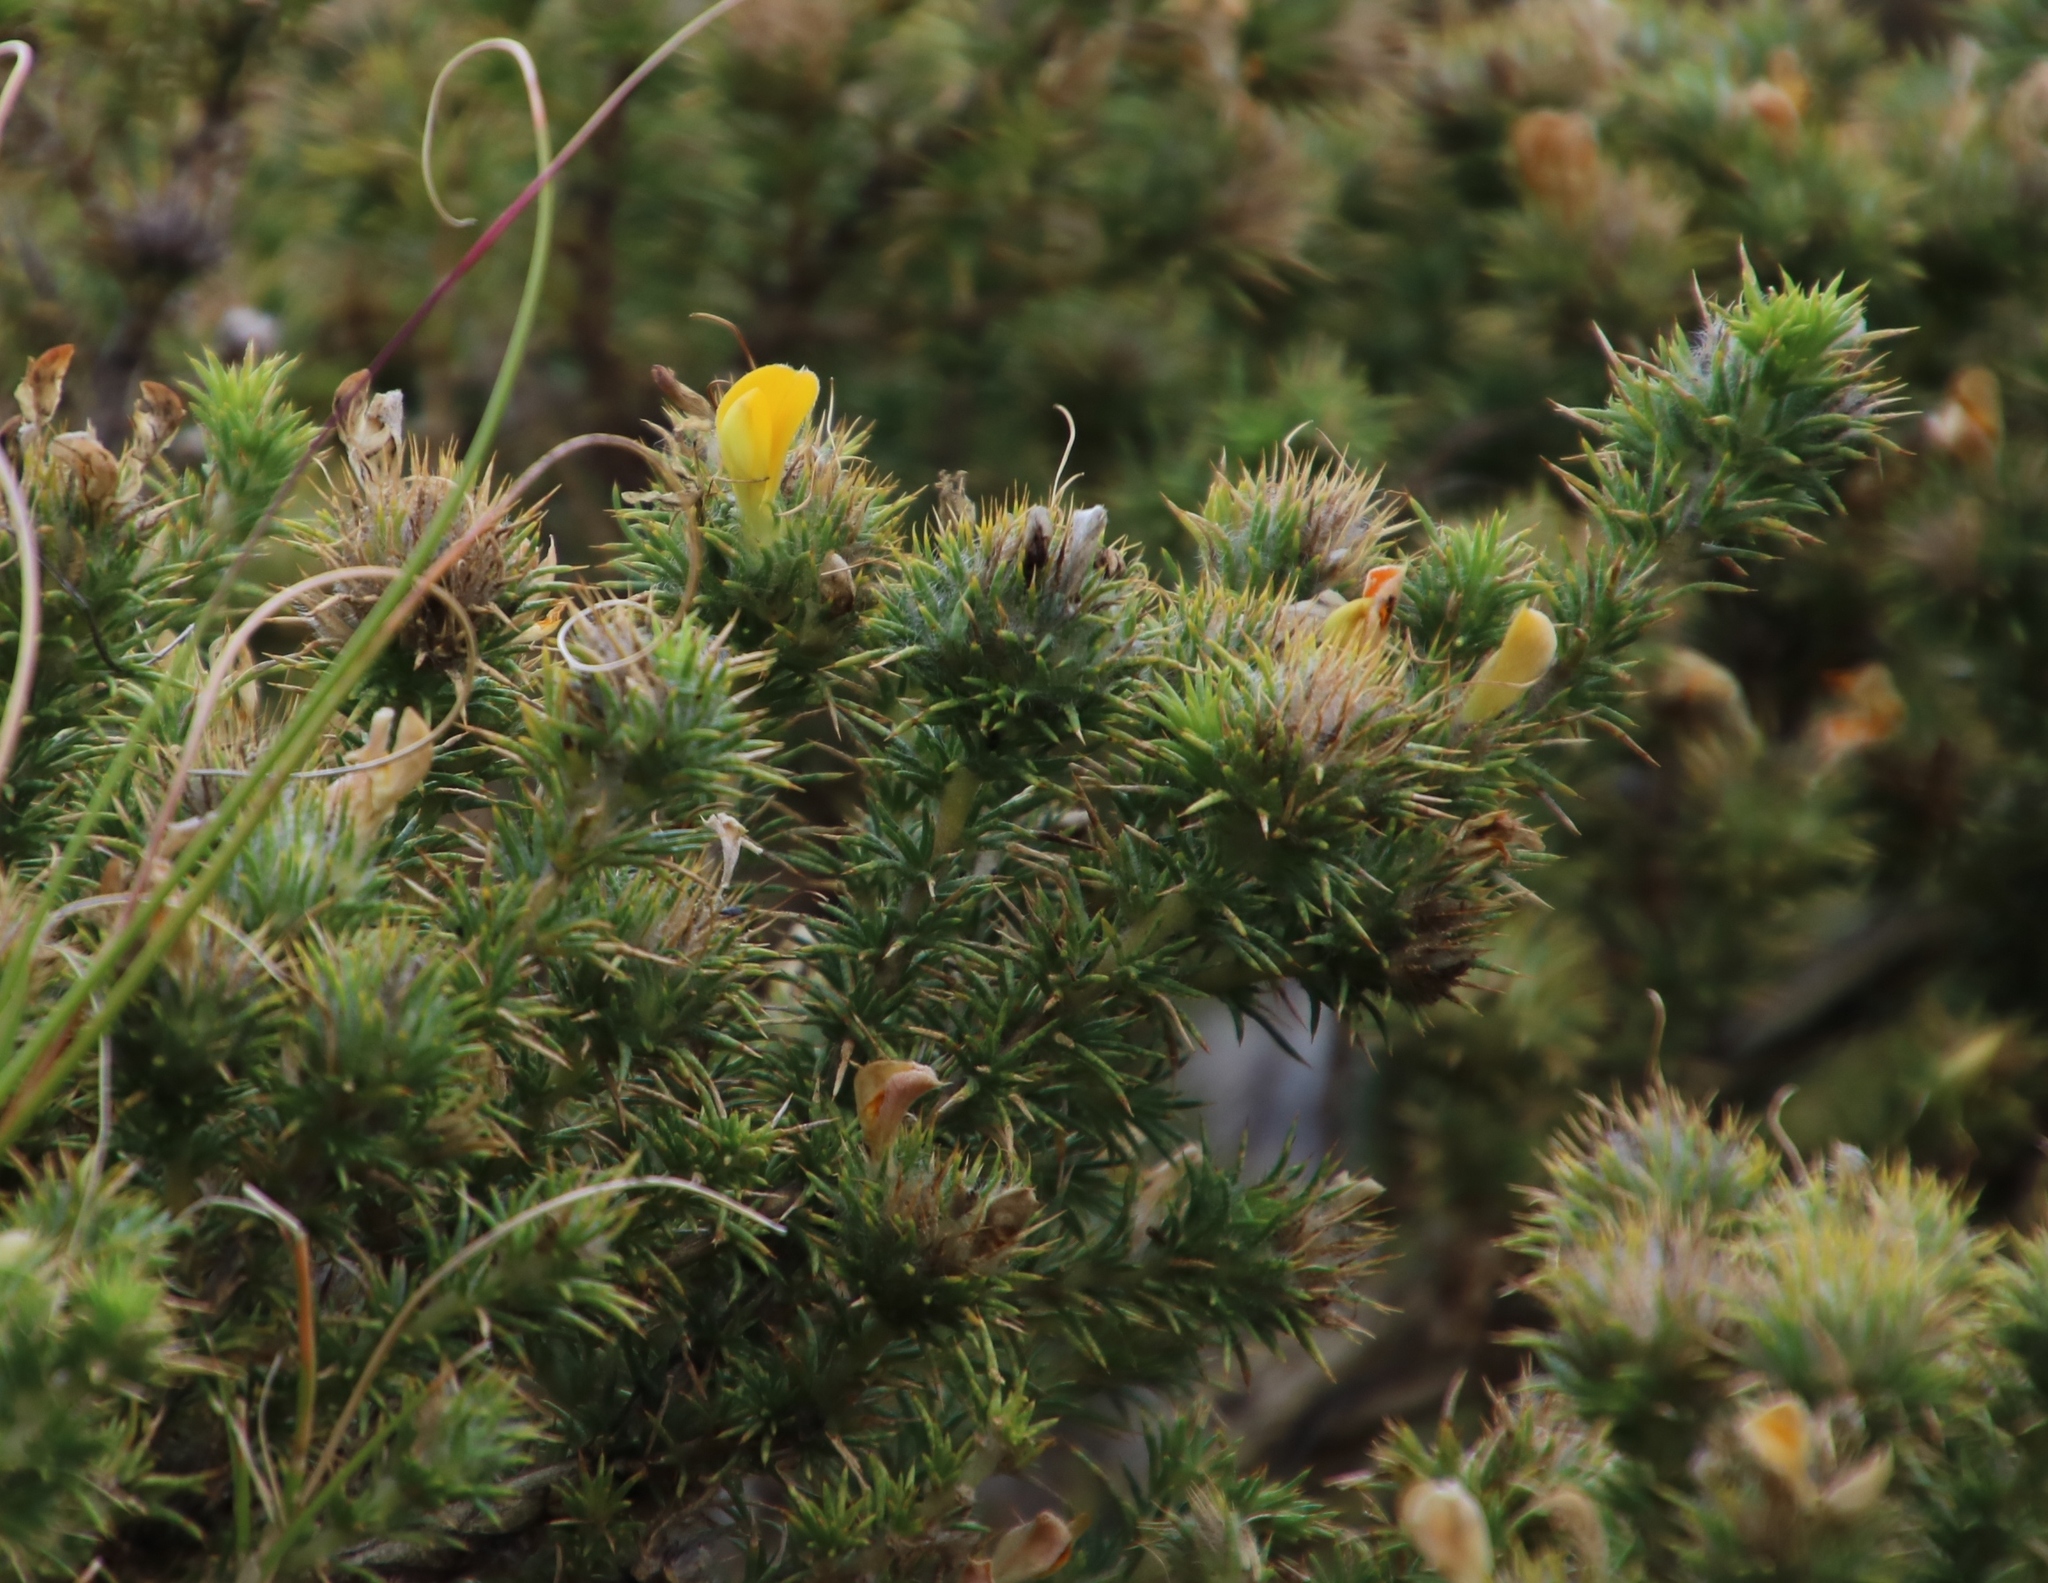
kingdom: Plantae
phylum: Tracheophyta
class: Magnoliopsida
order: Fabales
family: Fabaceae
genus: Aspalathus
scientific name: Aspalathus chenopoda
